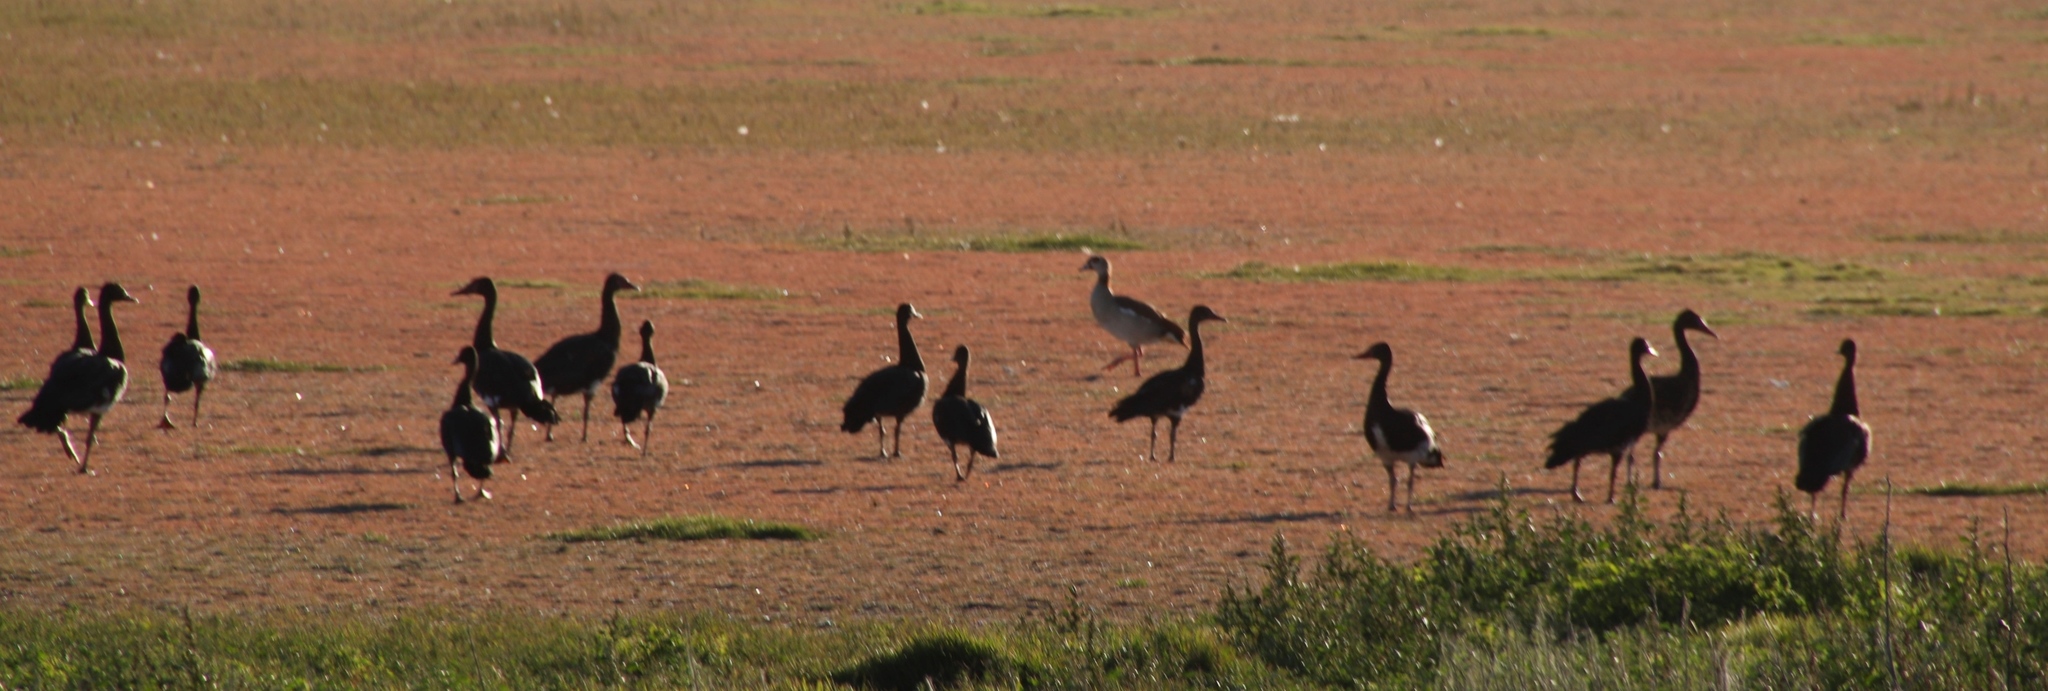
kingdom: Animalia
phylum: Chordata
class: Aves
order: Anseriformes
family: Anatidae
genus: Plectropterus
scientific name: Plectropterus gambensis
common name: Spur-winged goose
